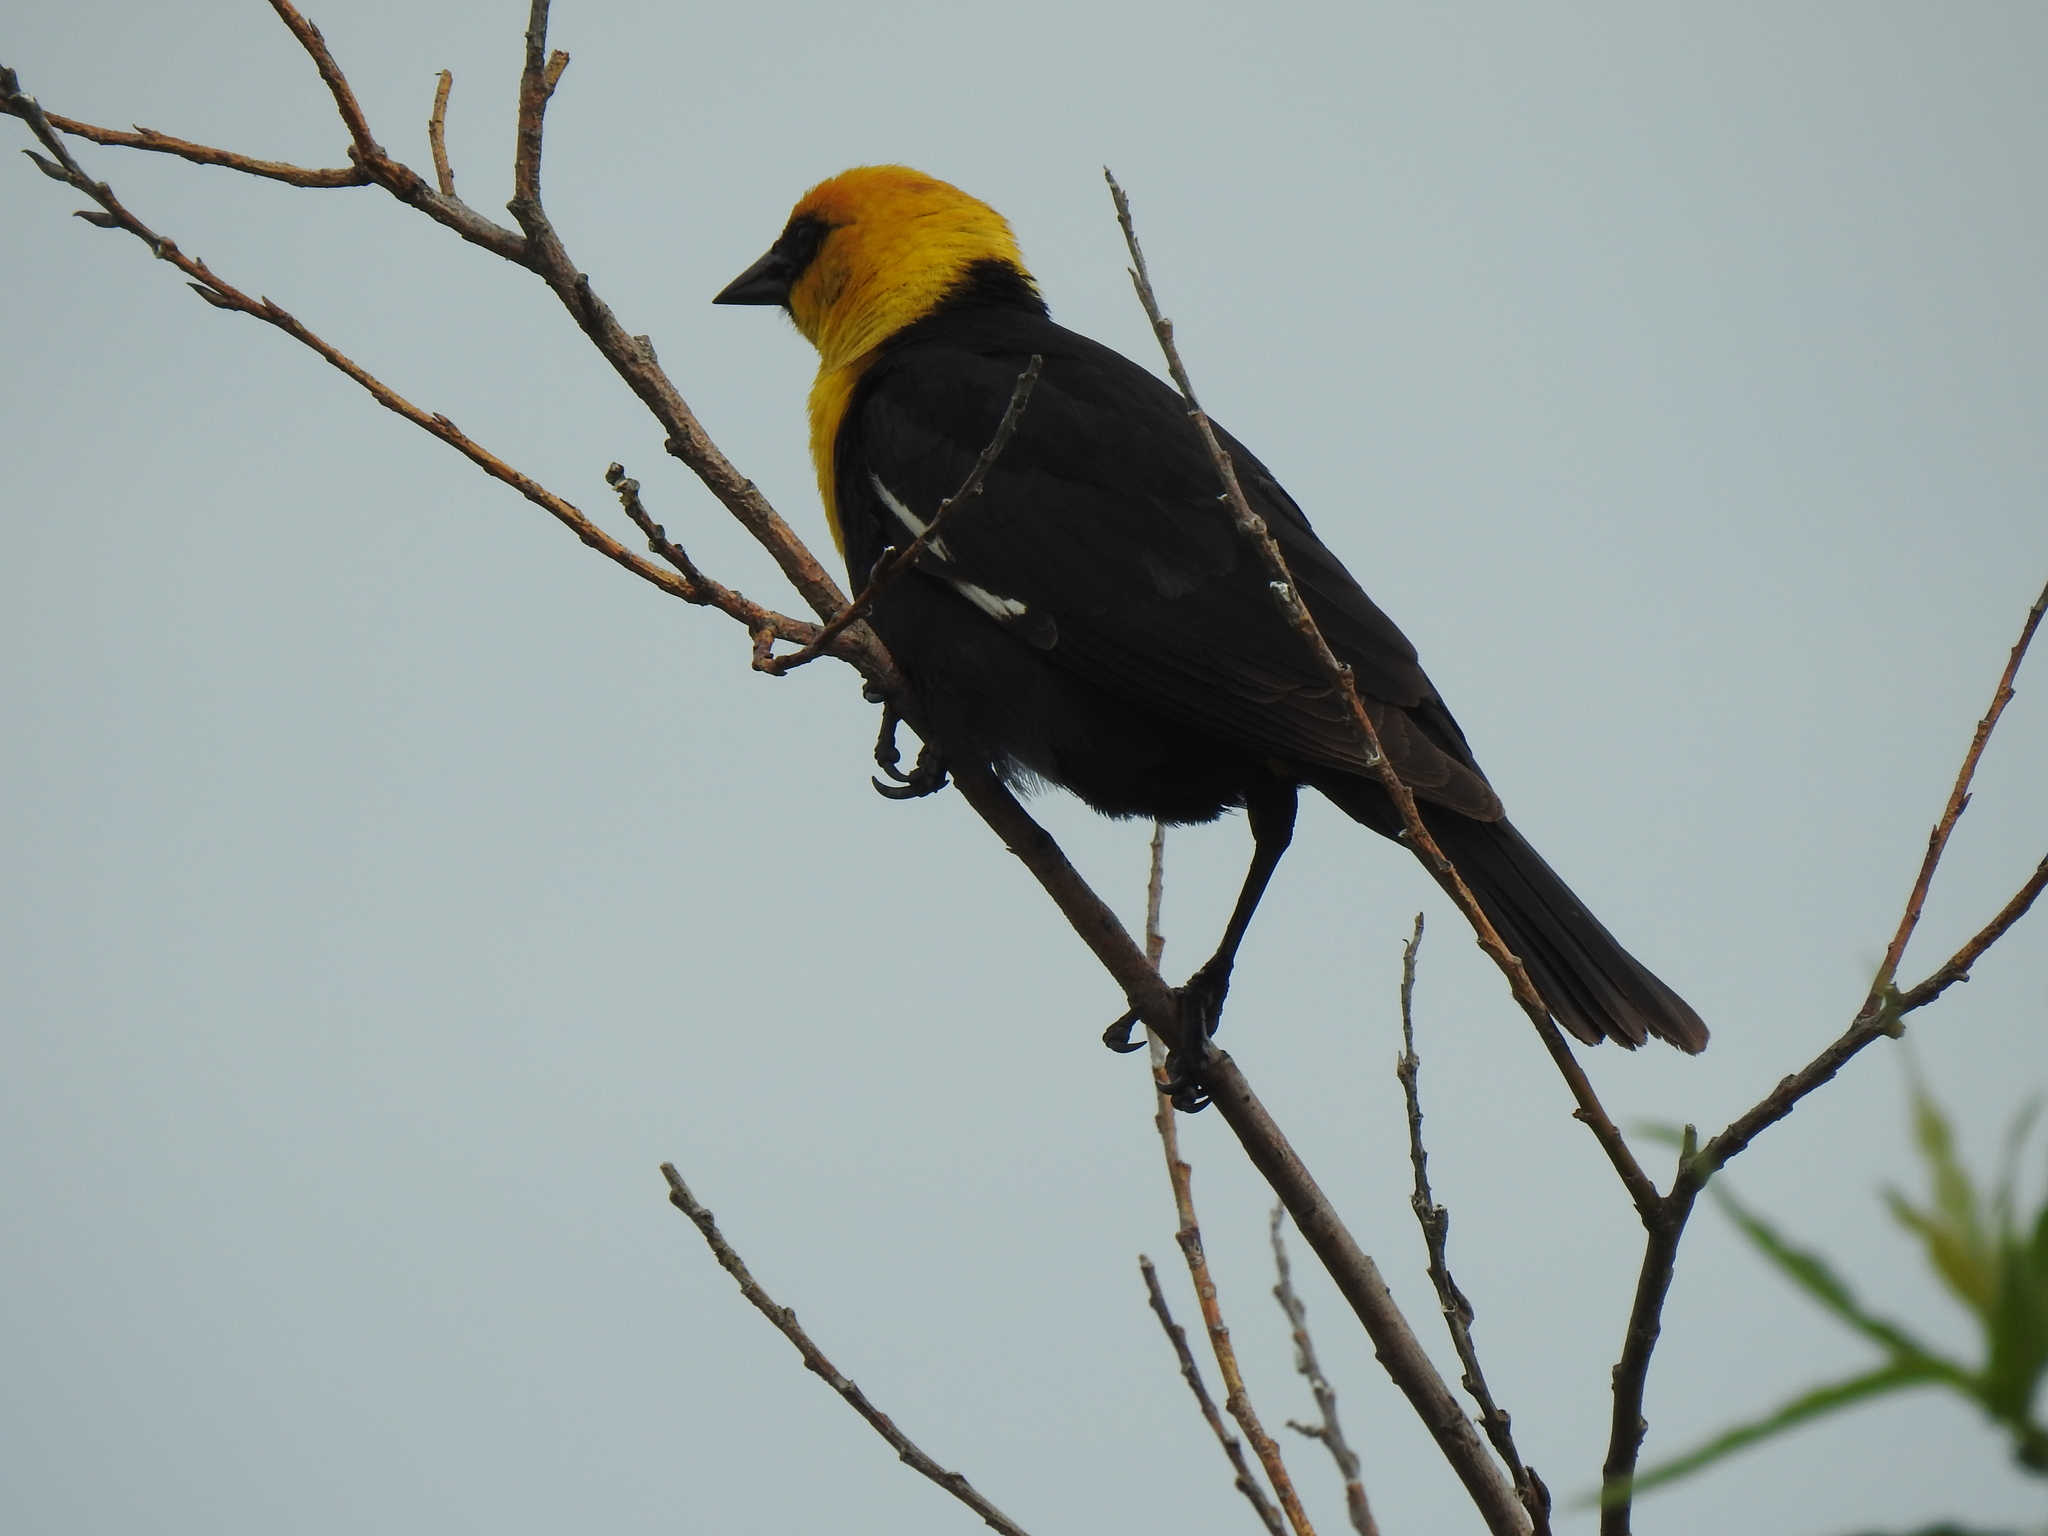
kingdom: Animalia
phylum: Chordata
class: Aves
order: Passeriformes
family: Icteridae
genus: Xanthocephalus
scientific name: Xanthocephalus xanthocephalus
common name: Yellow-headed blackbird
